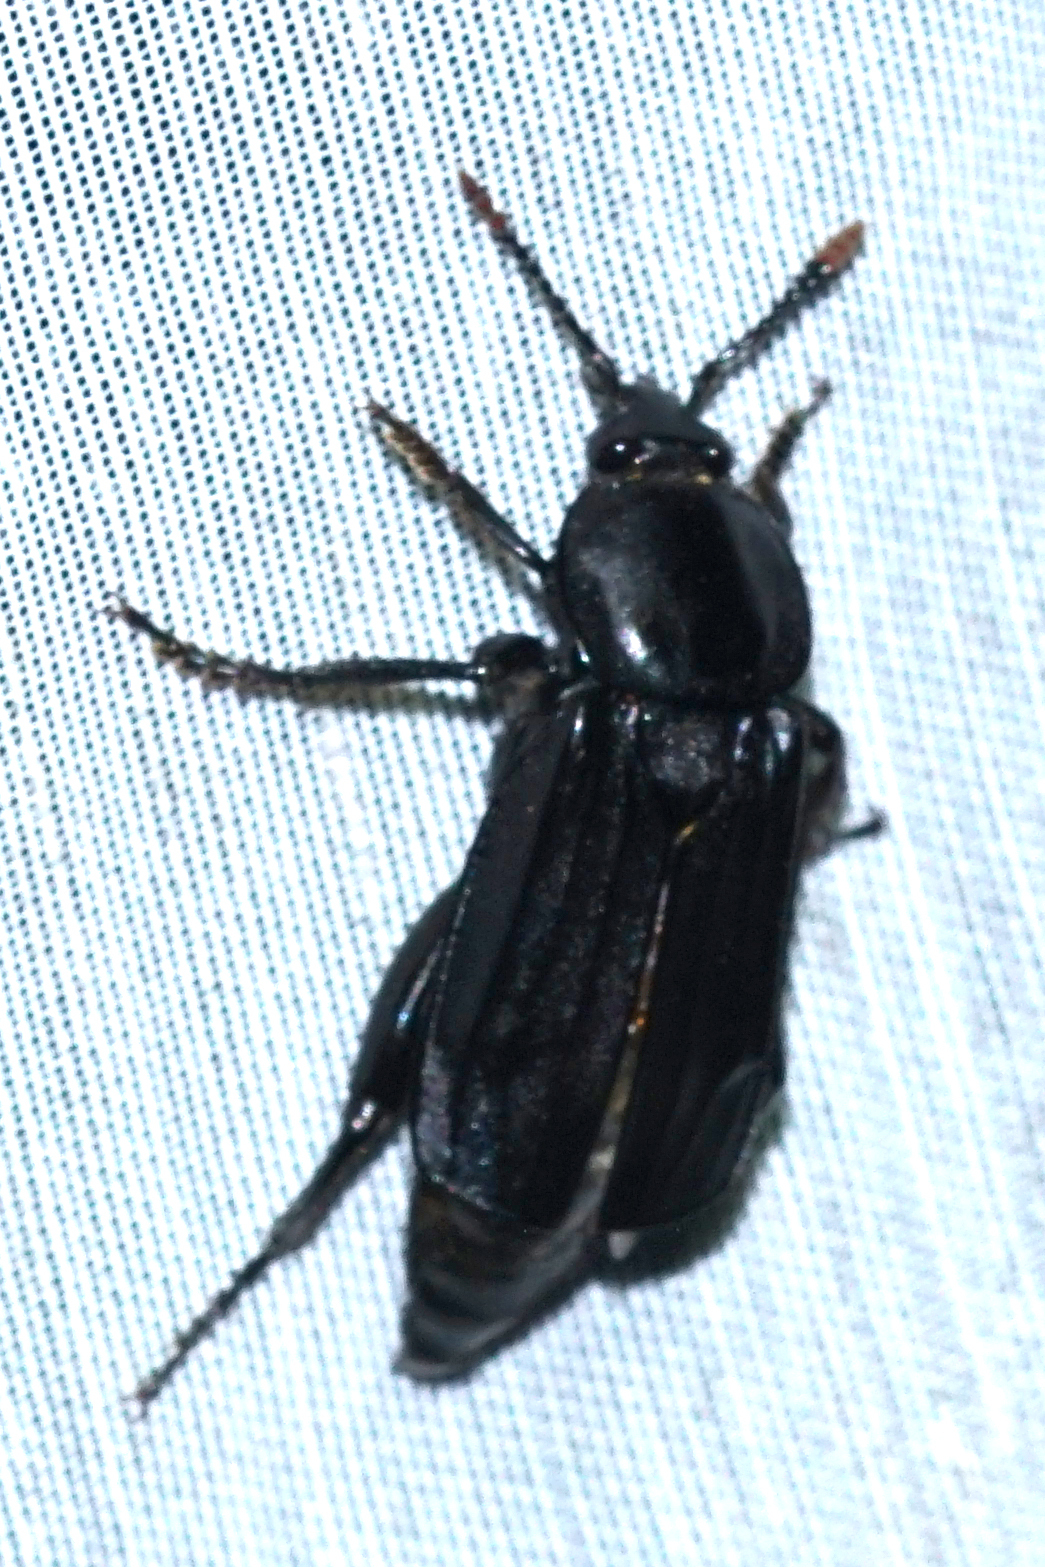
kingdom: Animalia
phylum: Arthropoda
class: Insecta
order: Coleoptera
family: Staphylinidae
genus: Necrodes
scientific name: Necrodes littoralis
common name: Shore sexton beetle
